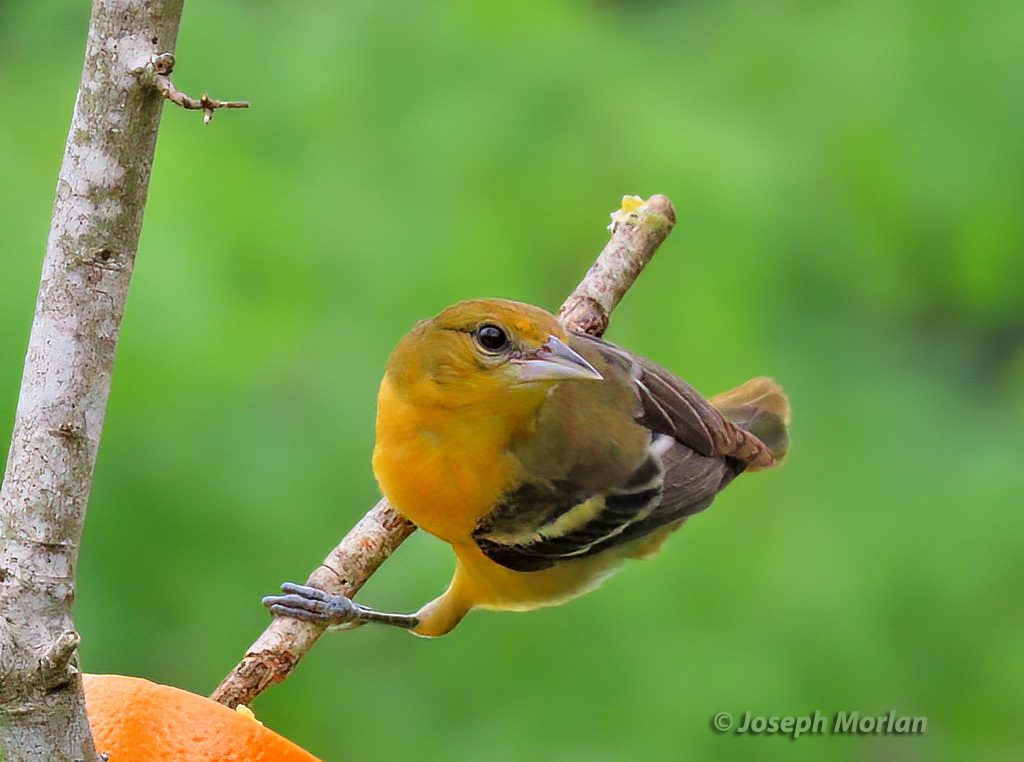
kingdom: Animalia
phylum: Chordata
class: Aves
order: Passeriformes
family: Icteridae
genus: Icterus
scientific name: Icterus galbula
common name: Baltimore oriole
